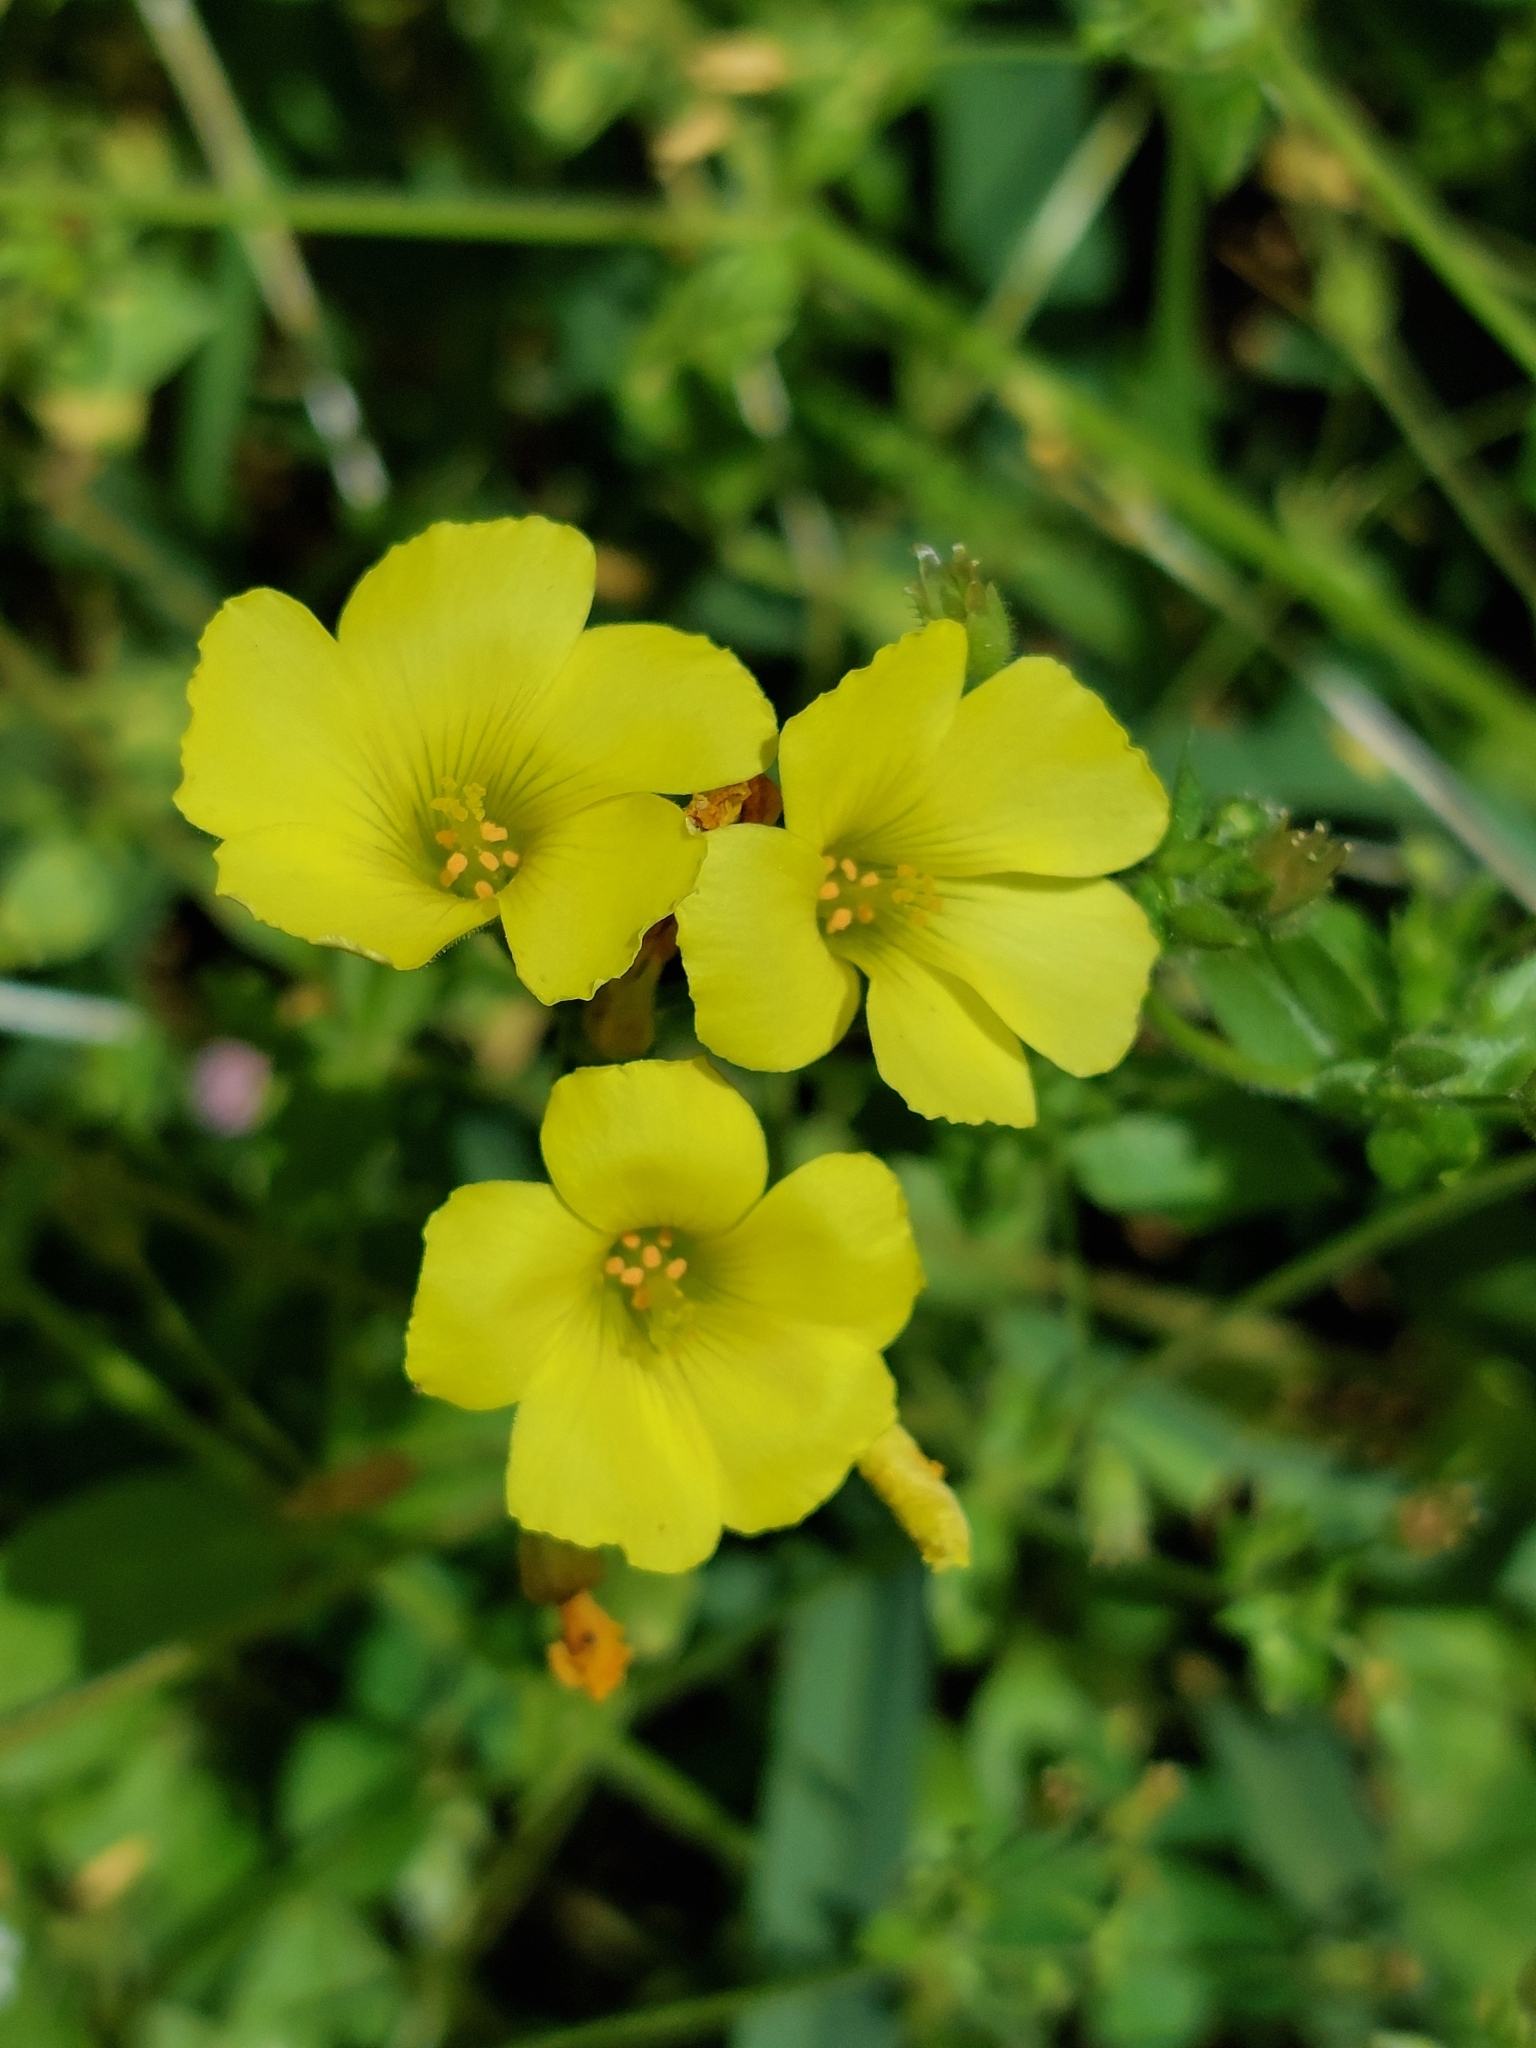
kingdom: Plantae
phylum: Tracheophyta
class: Magnoliopsida
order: Oxalidales
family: Oxalidaceae
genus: Oxalis
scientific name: Oxalis pes-caprae
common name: Bermuda-buttercup
